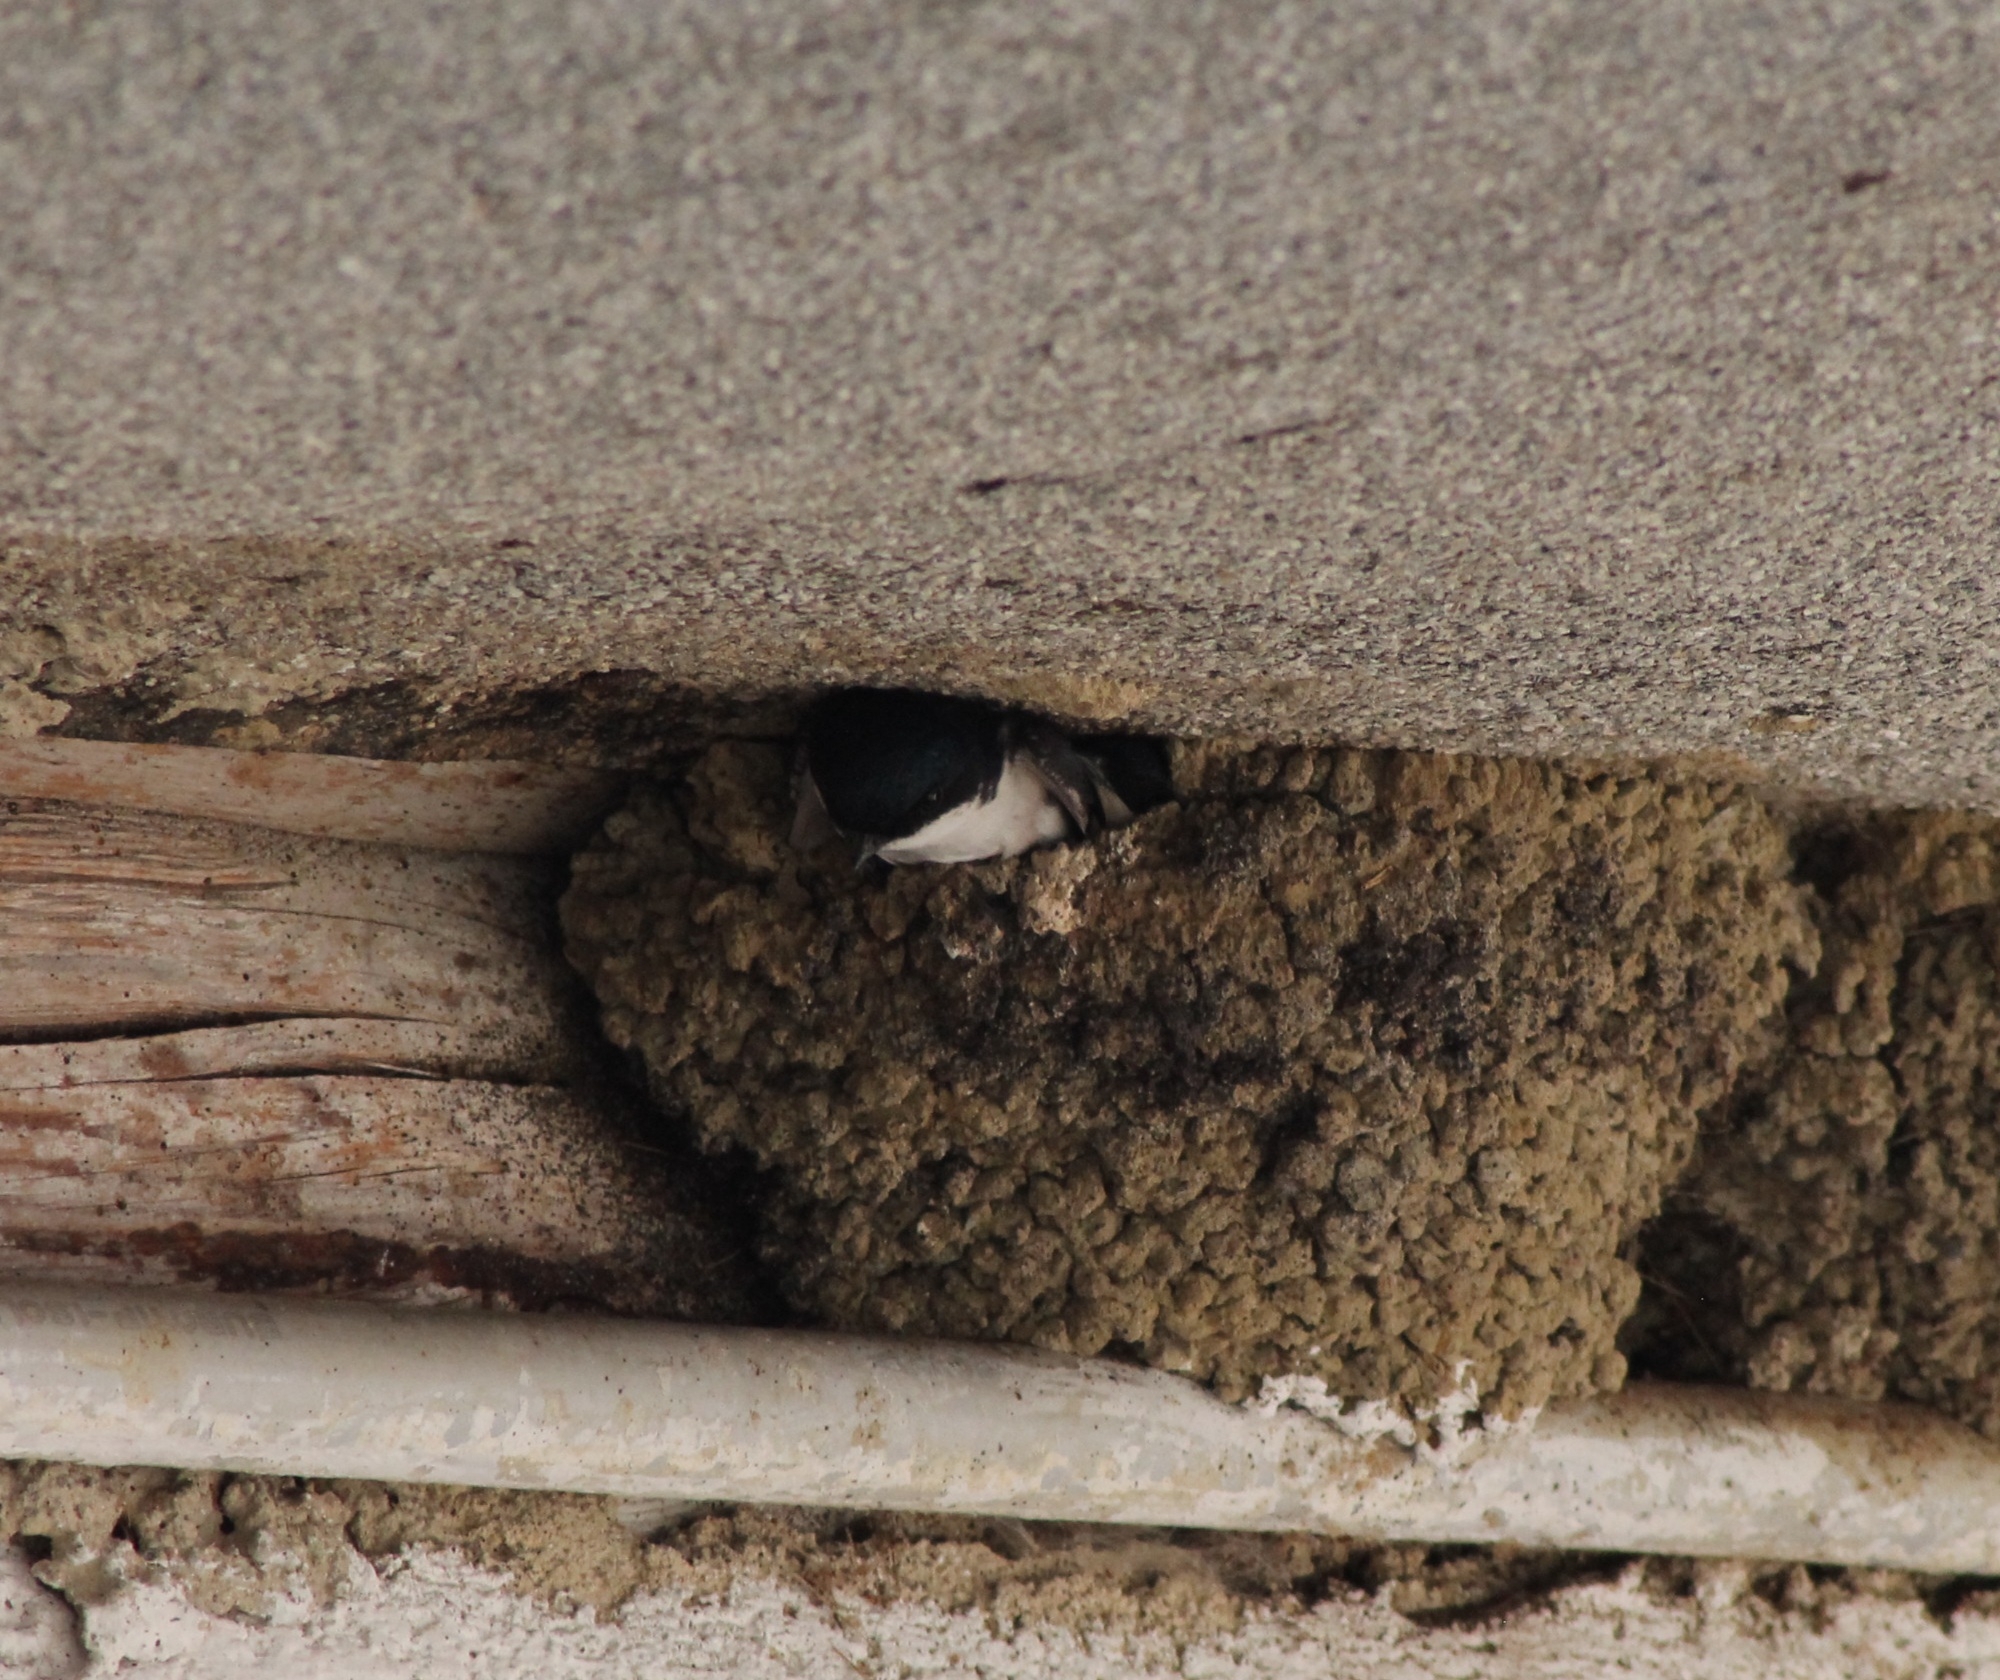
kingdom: Animalia
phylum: Chordata
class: Aves
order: Passeriformes
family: Hirundinidae
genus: Delichon
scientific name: Delichon urbicum
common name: Common house martin
